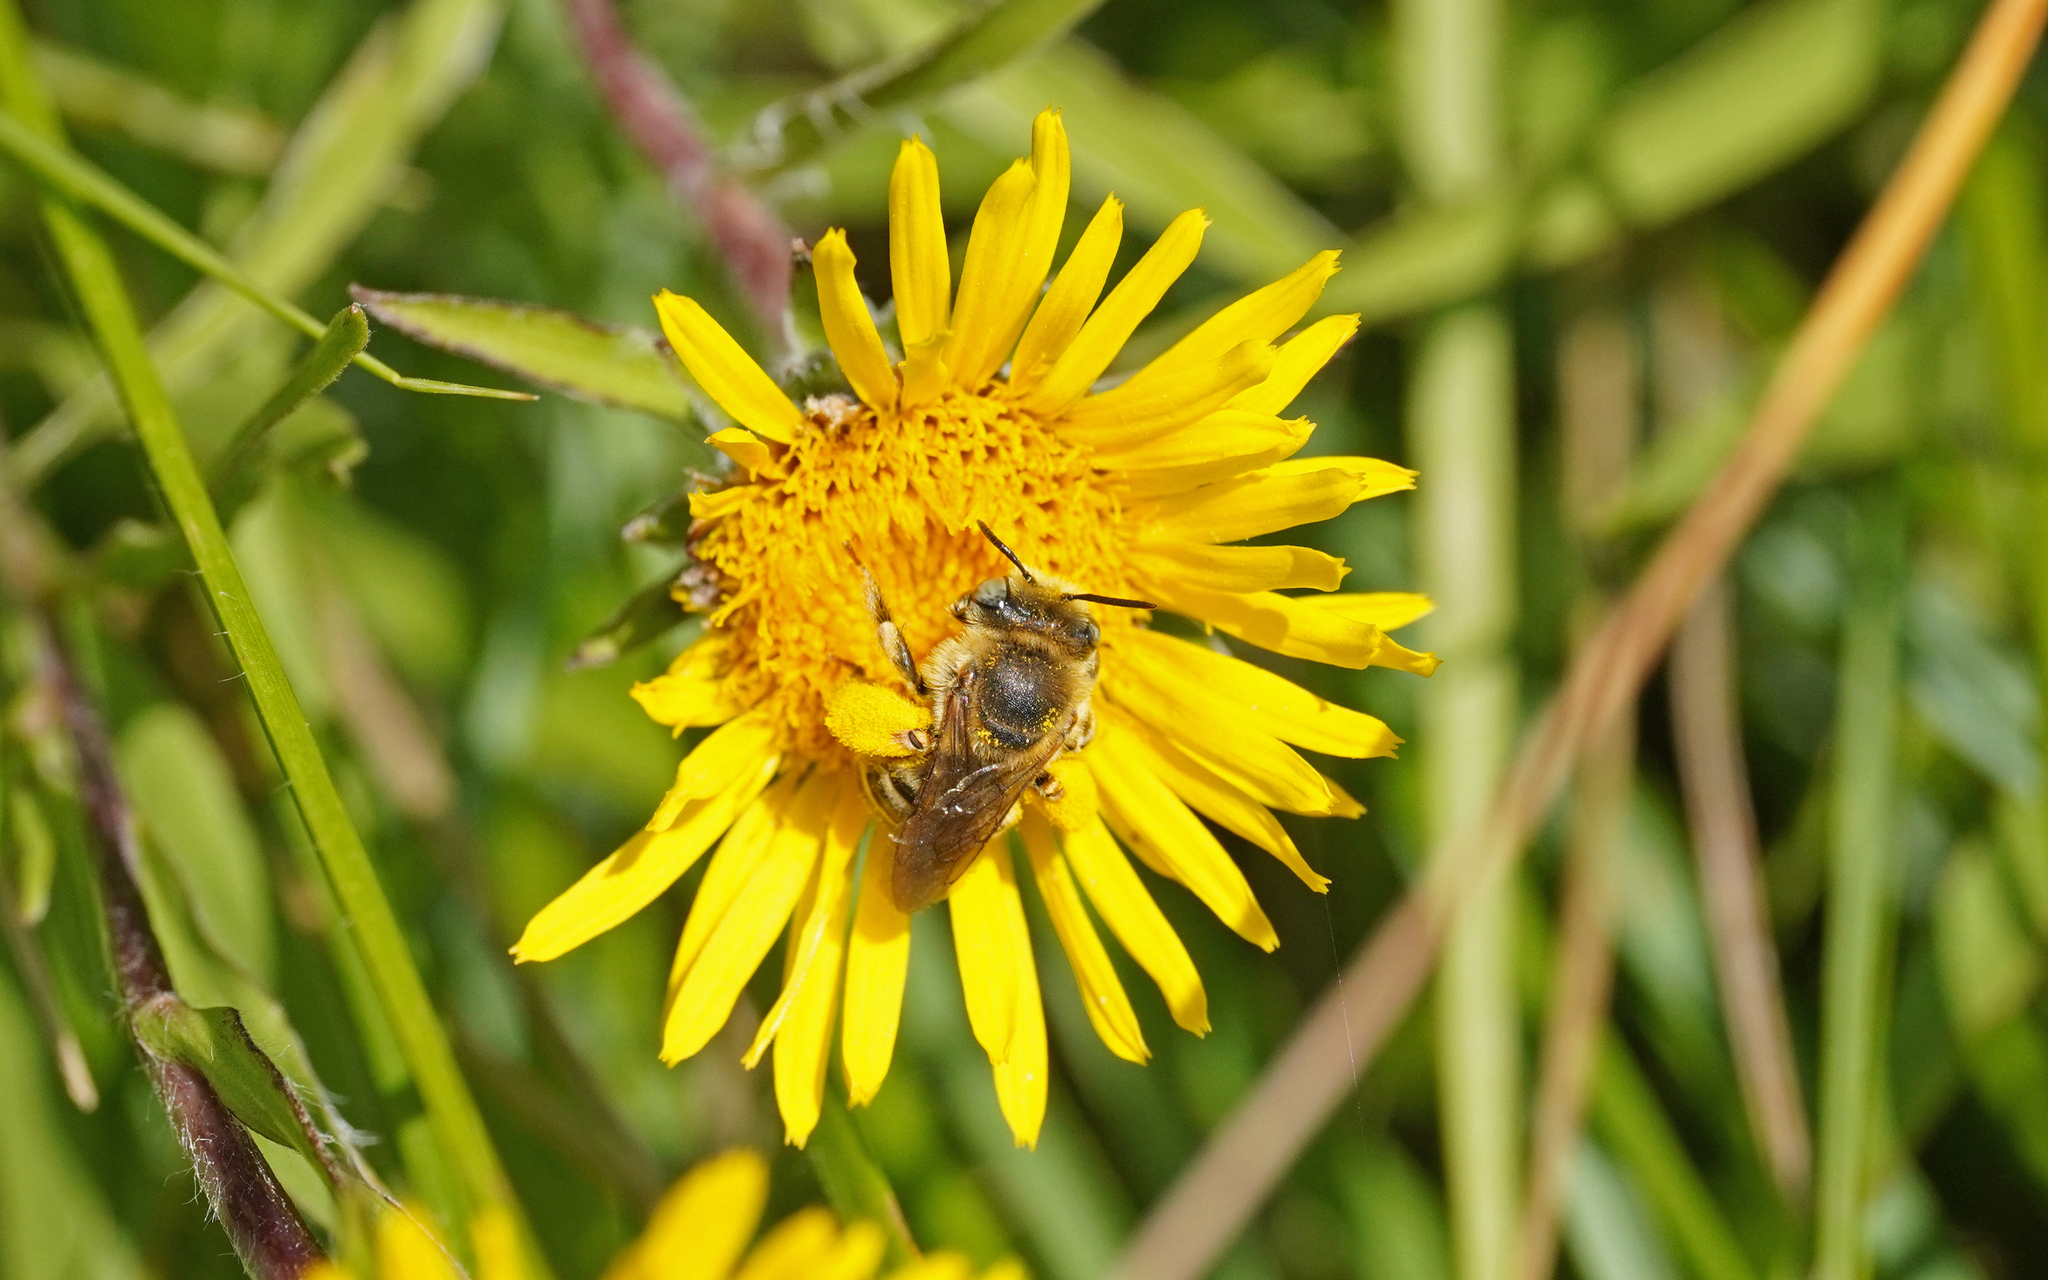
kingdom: Animalia
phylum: Arthropoda
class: Insecta
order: Hymenoptera
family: Apidae
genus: Tetraloniella
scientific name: Tetraloniella fulvescens
